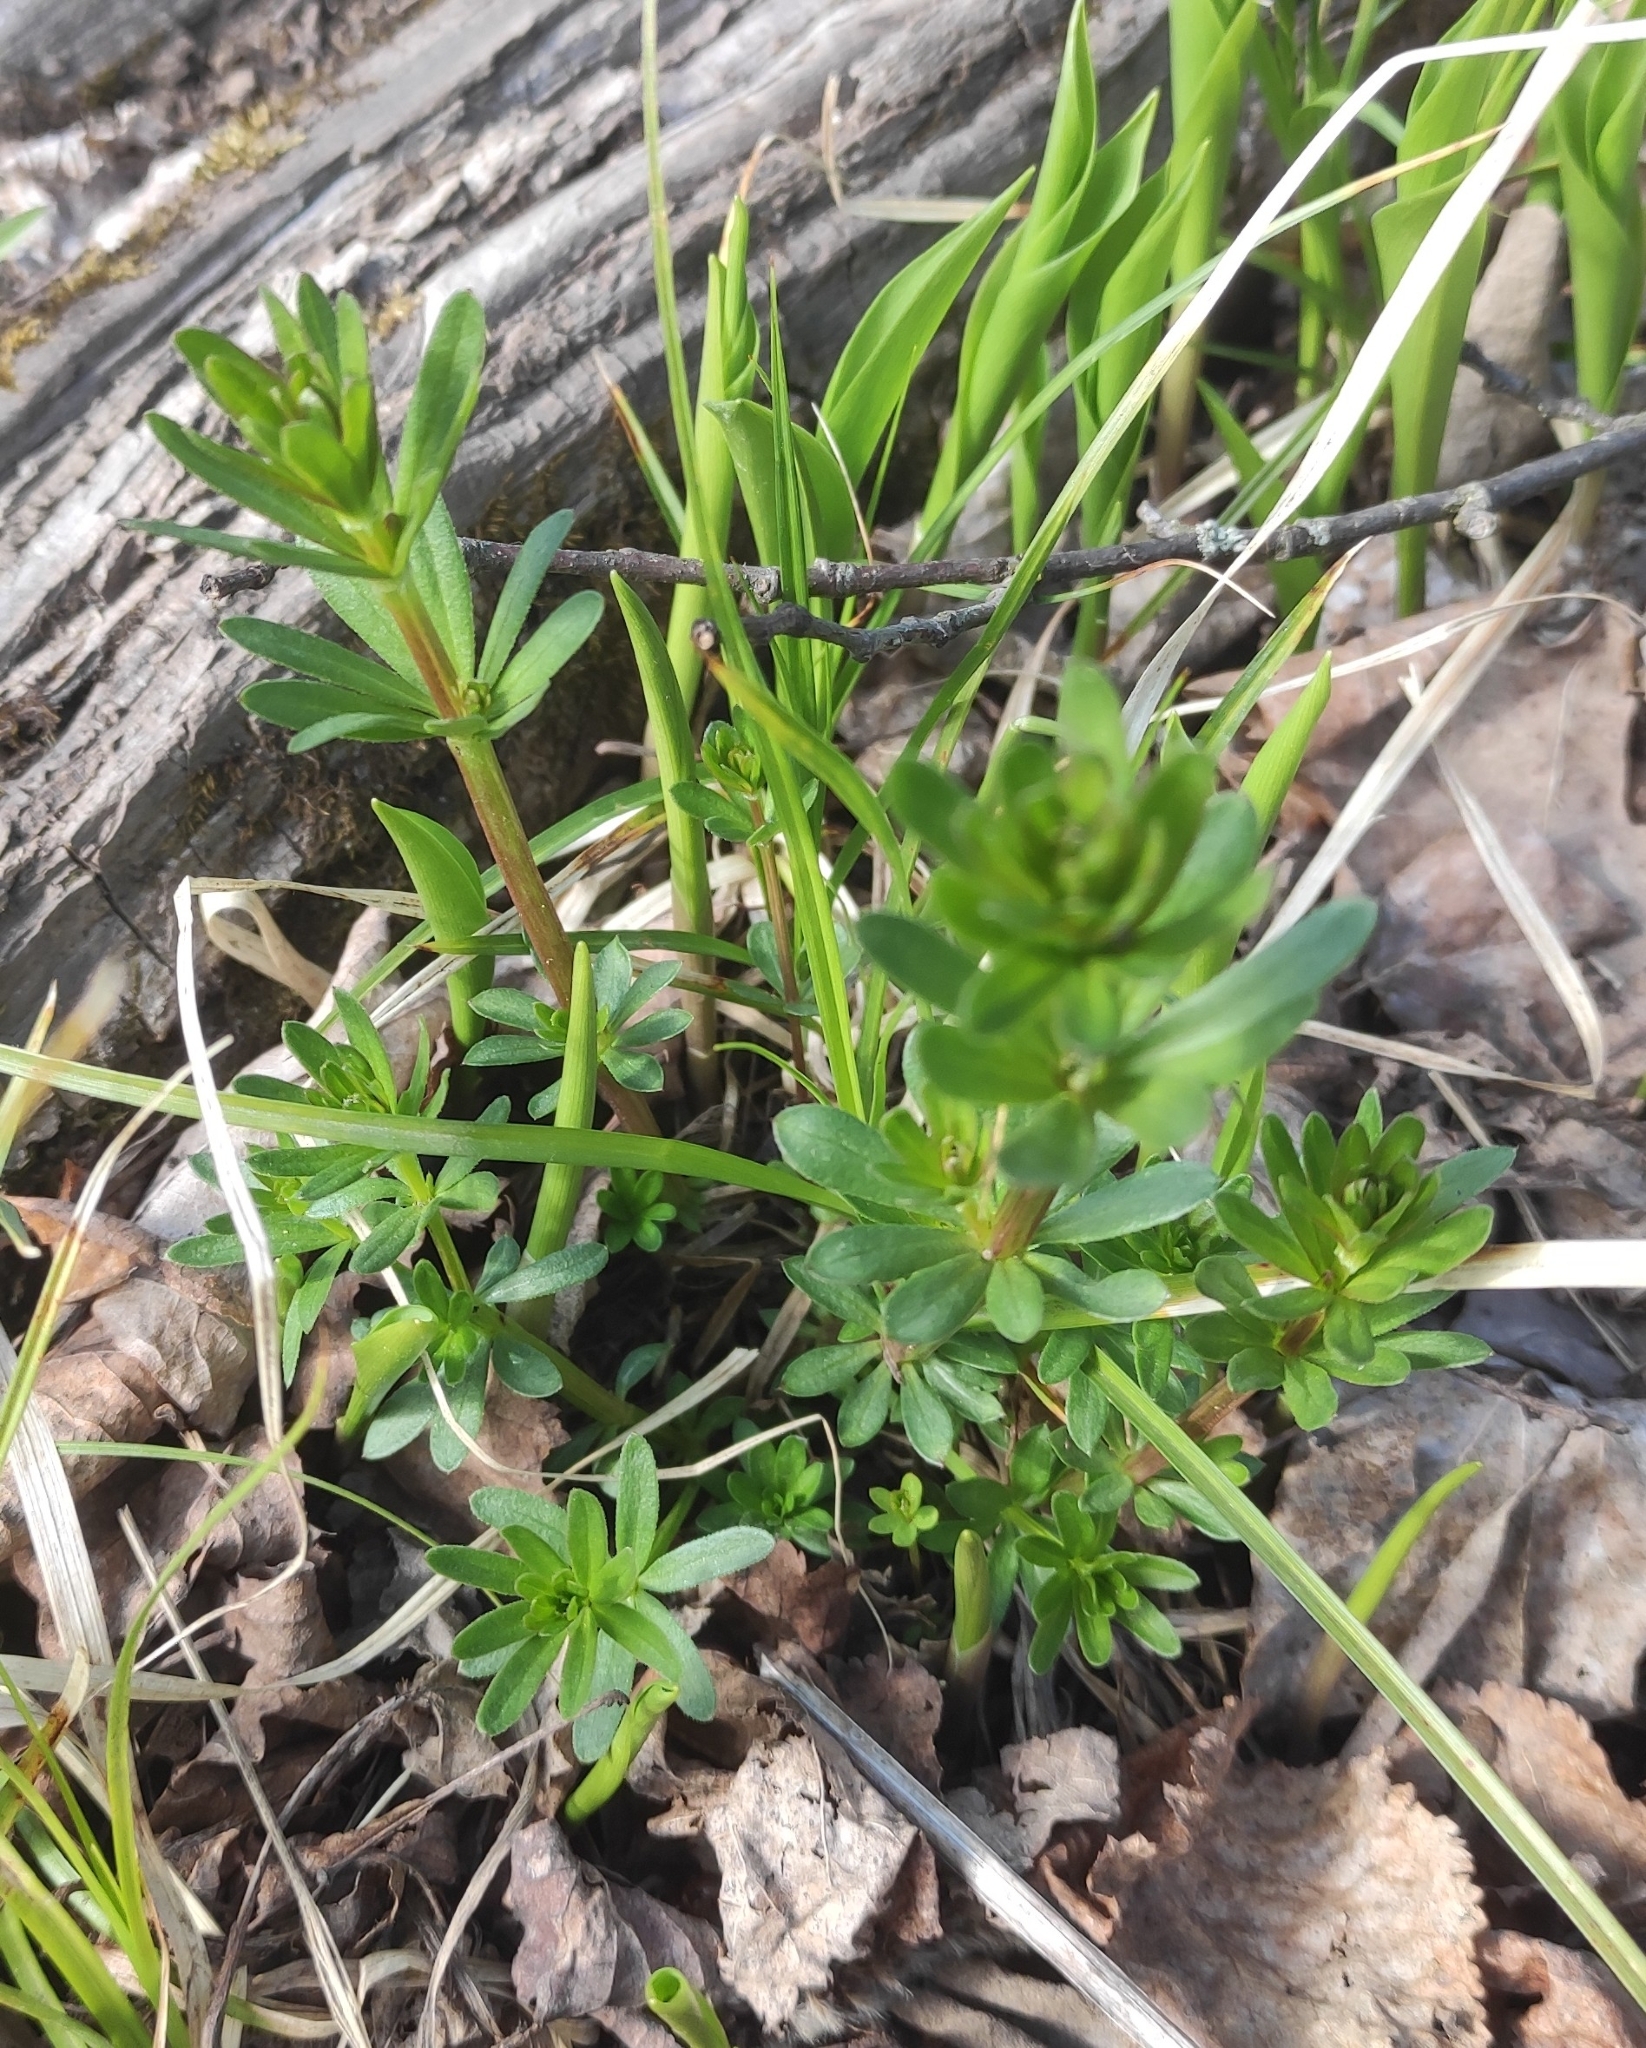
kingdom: Plantae
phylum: Tracheophyta
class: Magnoliopsida
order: Gentianales
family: Rubiaceae
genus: Galium
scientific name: Galium mollugo
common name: Hedge bedstraw
